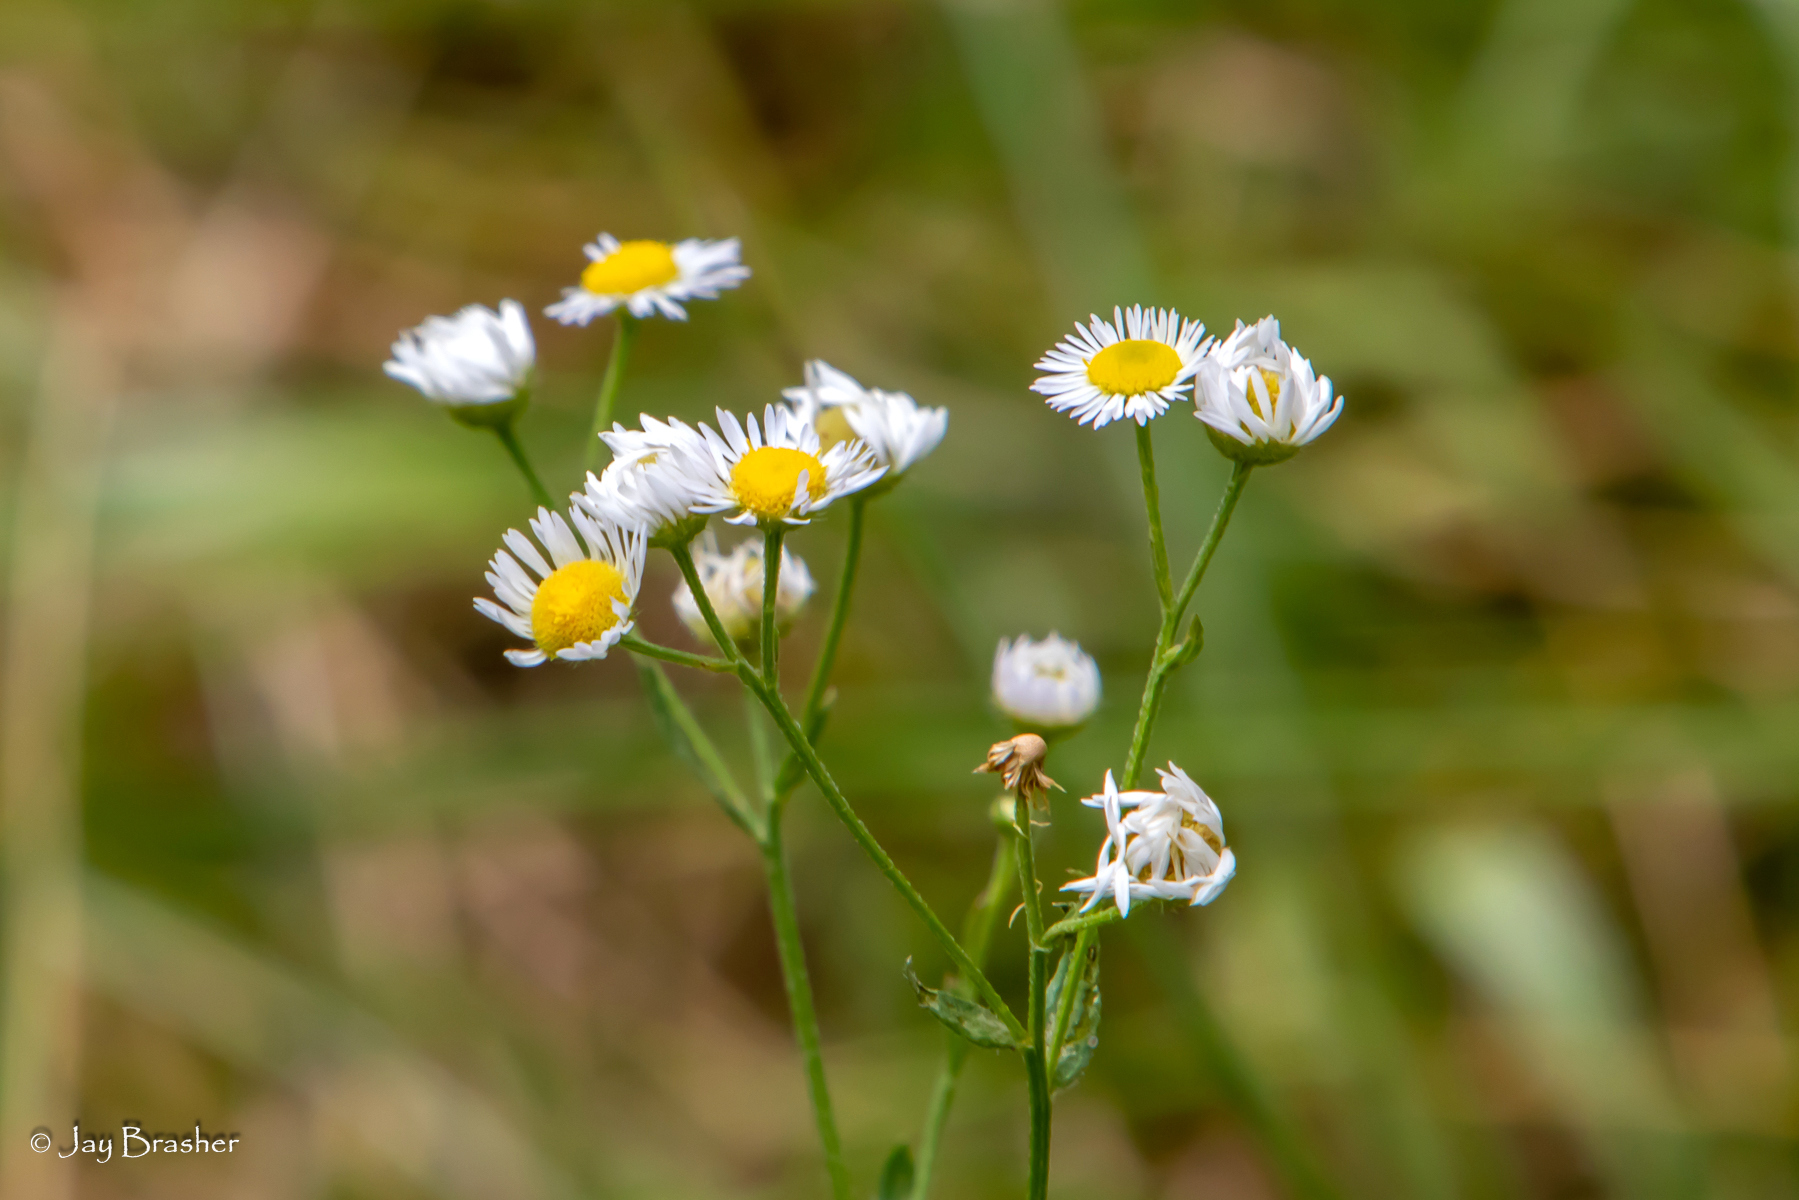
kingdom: Plantae
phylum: Tracheophyta
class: Magnoliopsida
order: Asterales
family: Asteraceae
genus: Erigeron
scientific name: Erigeron strigosus
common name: Common eastern fleabane
